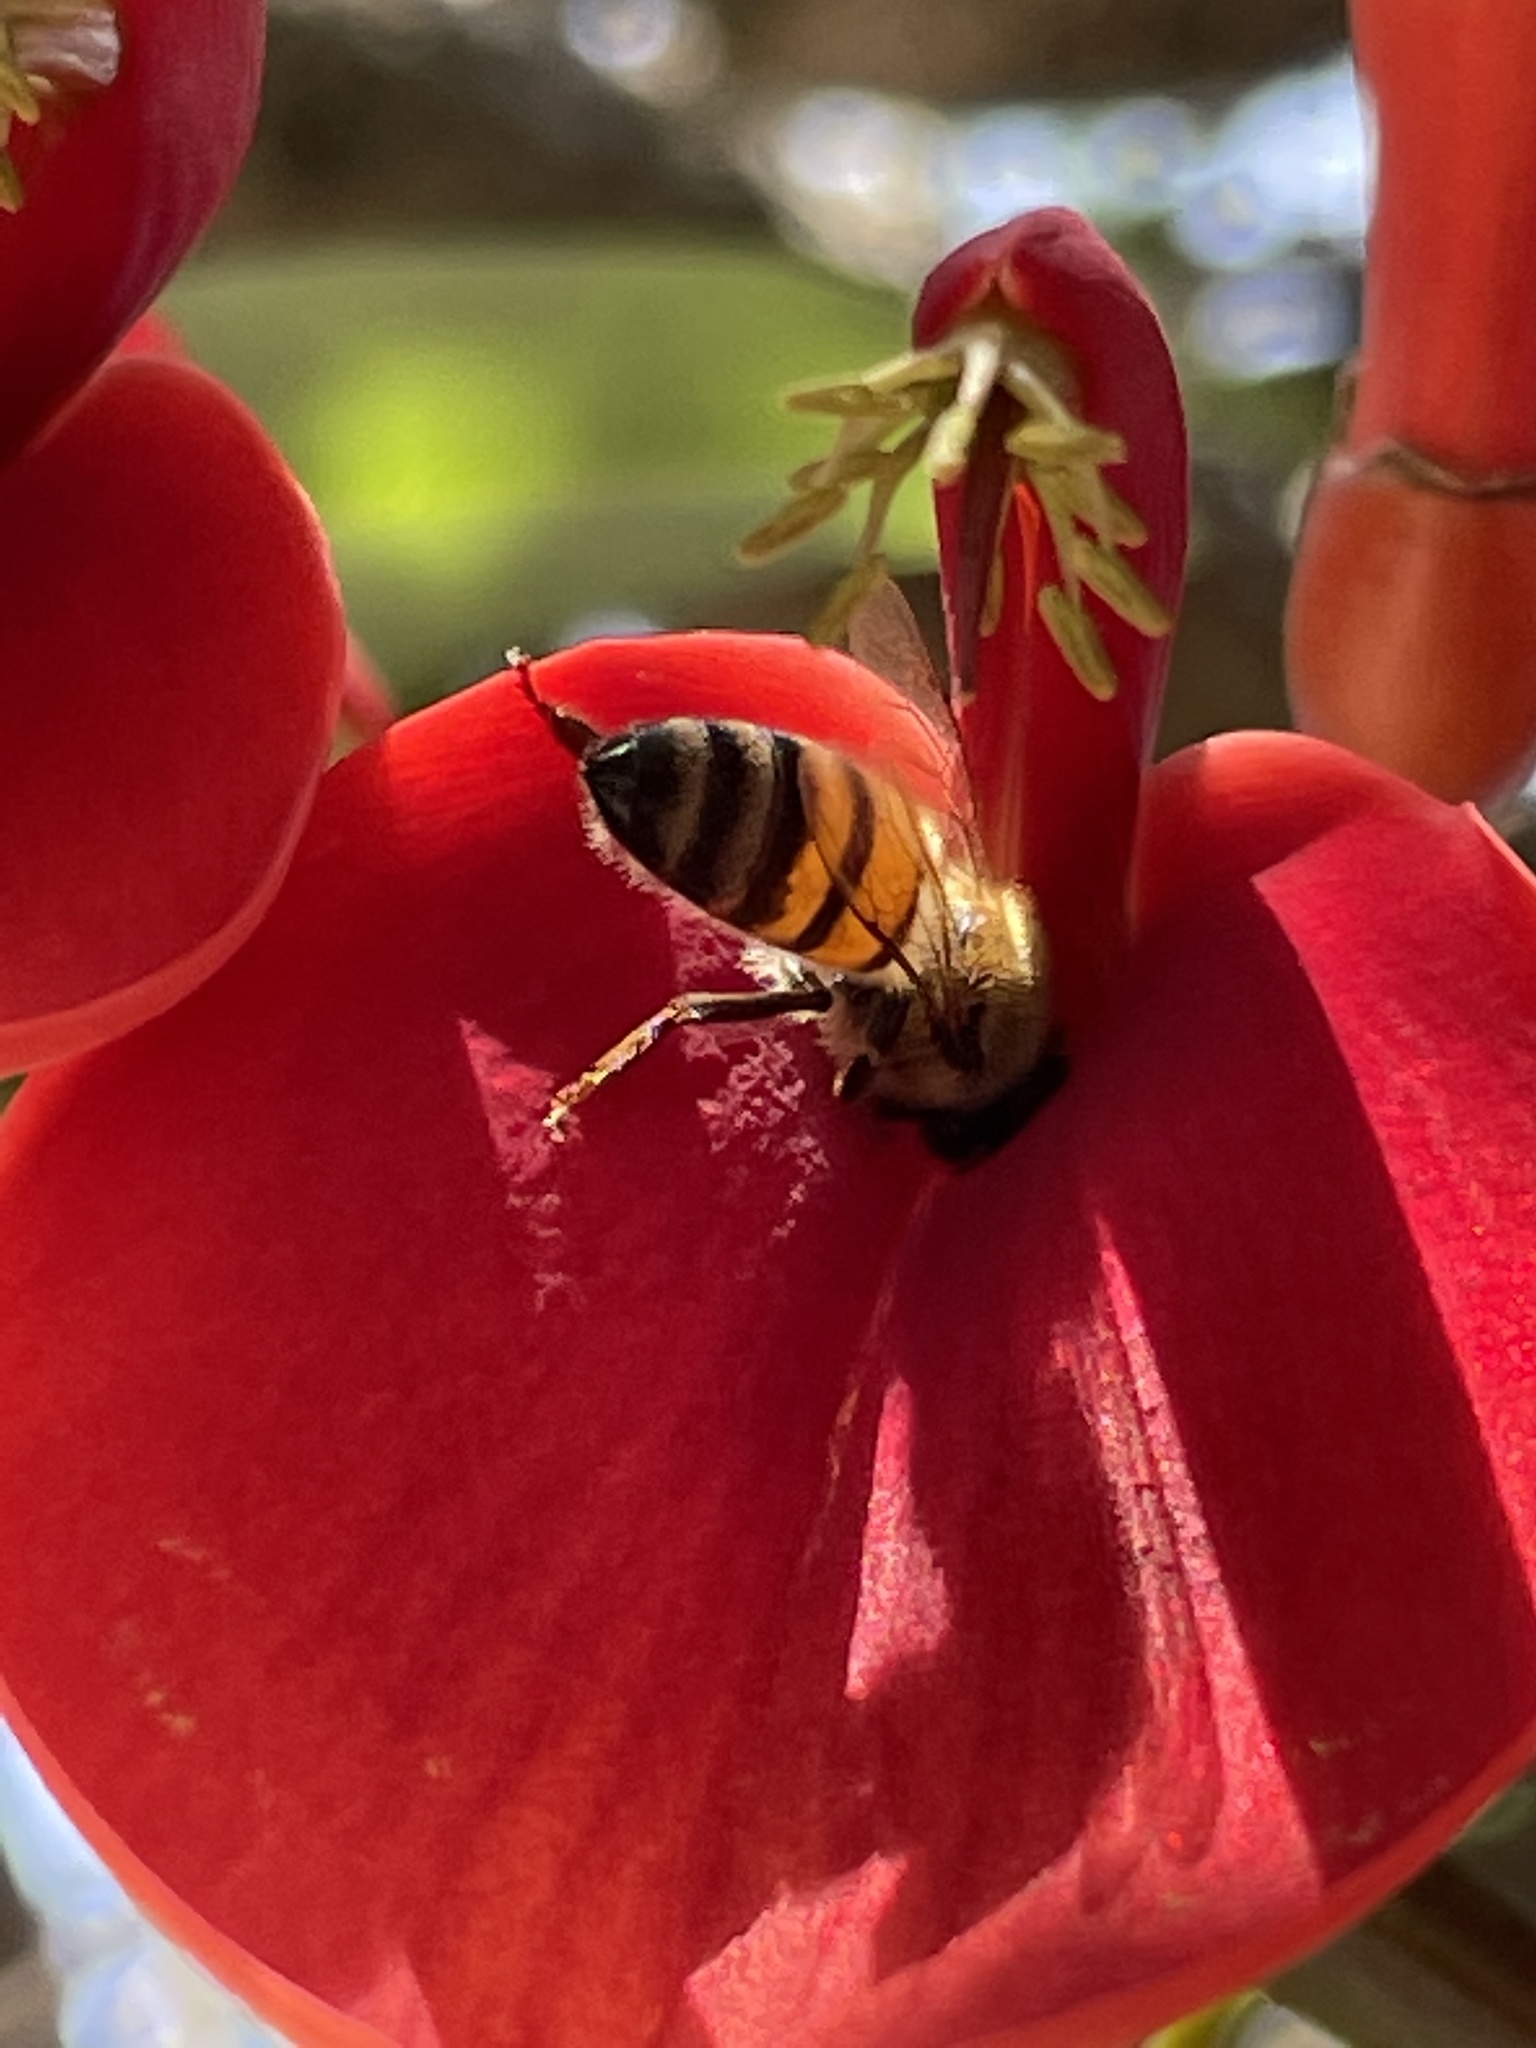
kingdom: Animalia
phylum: Arthropoda
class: Insecta
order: Hymenoptera
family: Apidae
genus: Apis
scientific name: Apis mellifera
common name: Honey bee
